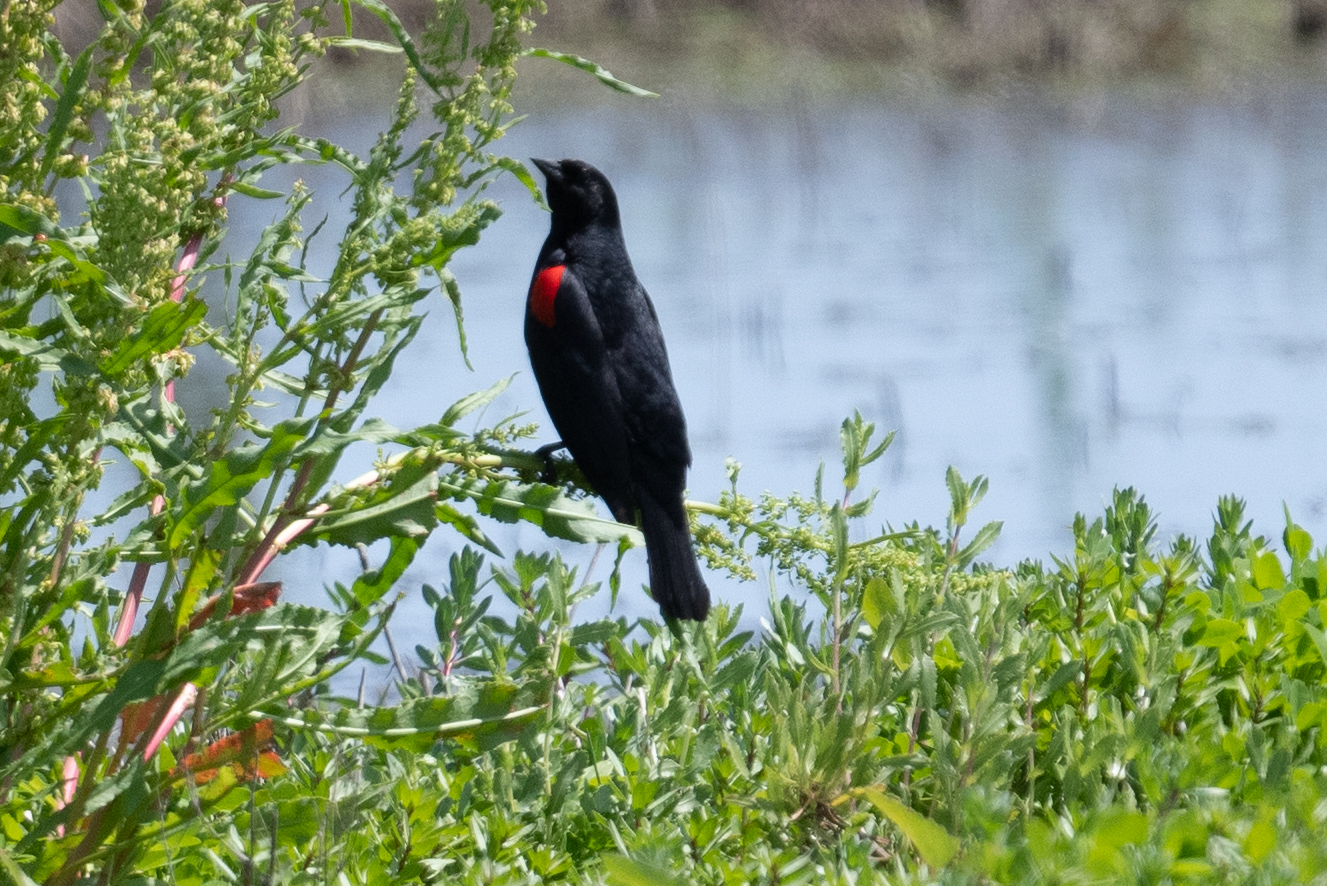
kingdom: Animalia
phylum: Chordata
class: Aves
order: Passeriformes
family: Icteridae
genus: Agelaius
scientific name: Agelaius phoeniceus
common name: Red-winged blackbird
